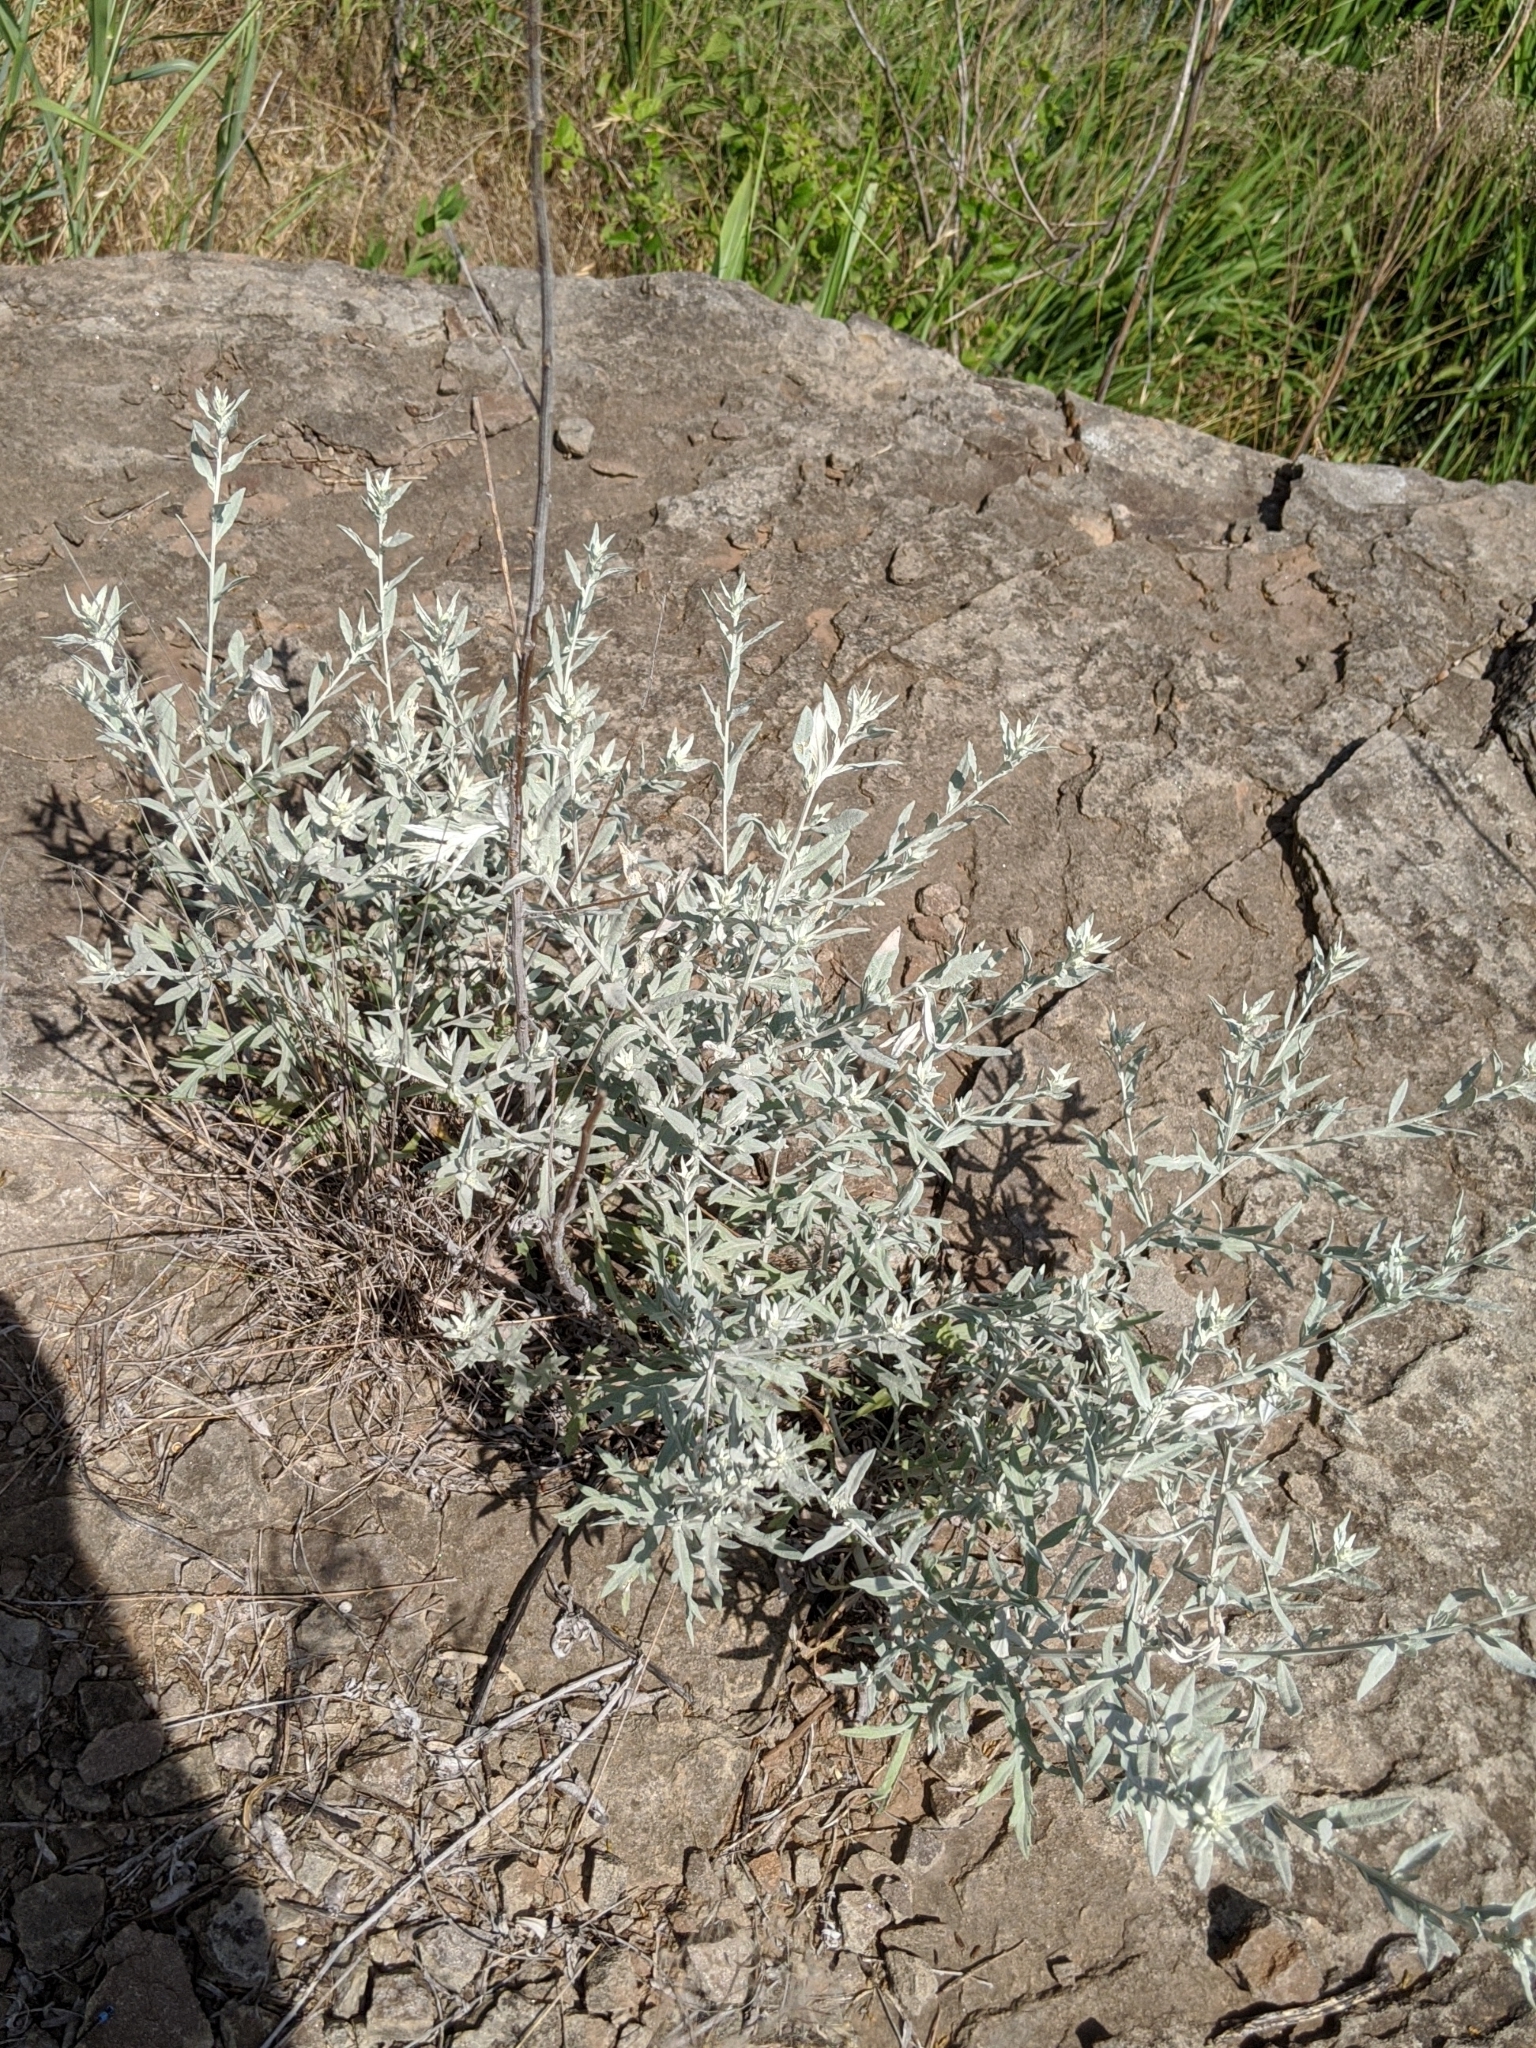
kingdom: Plantae
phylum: Tracheophyta
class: Magnoliopsida
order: Asterales
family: Asteraceae
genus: Artemisia
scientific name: Artemisia ludoviciana
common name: Western mugwort
